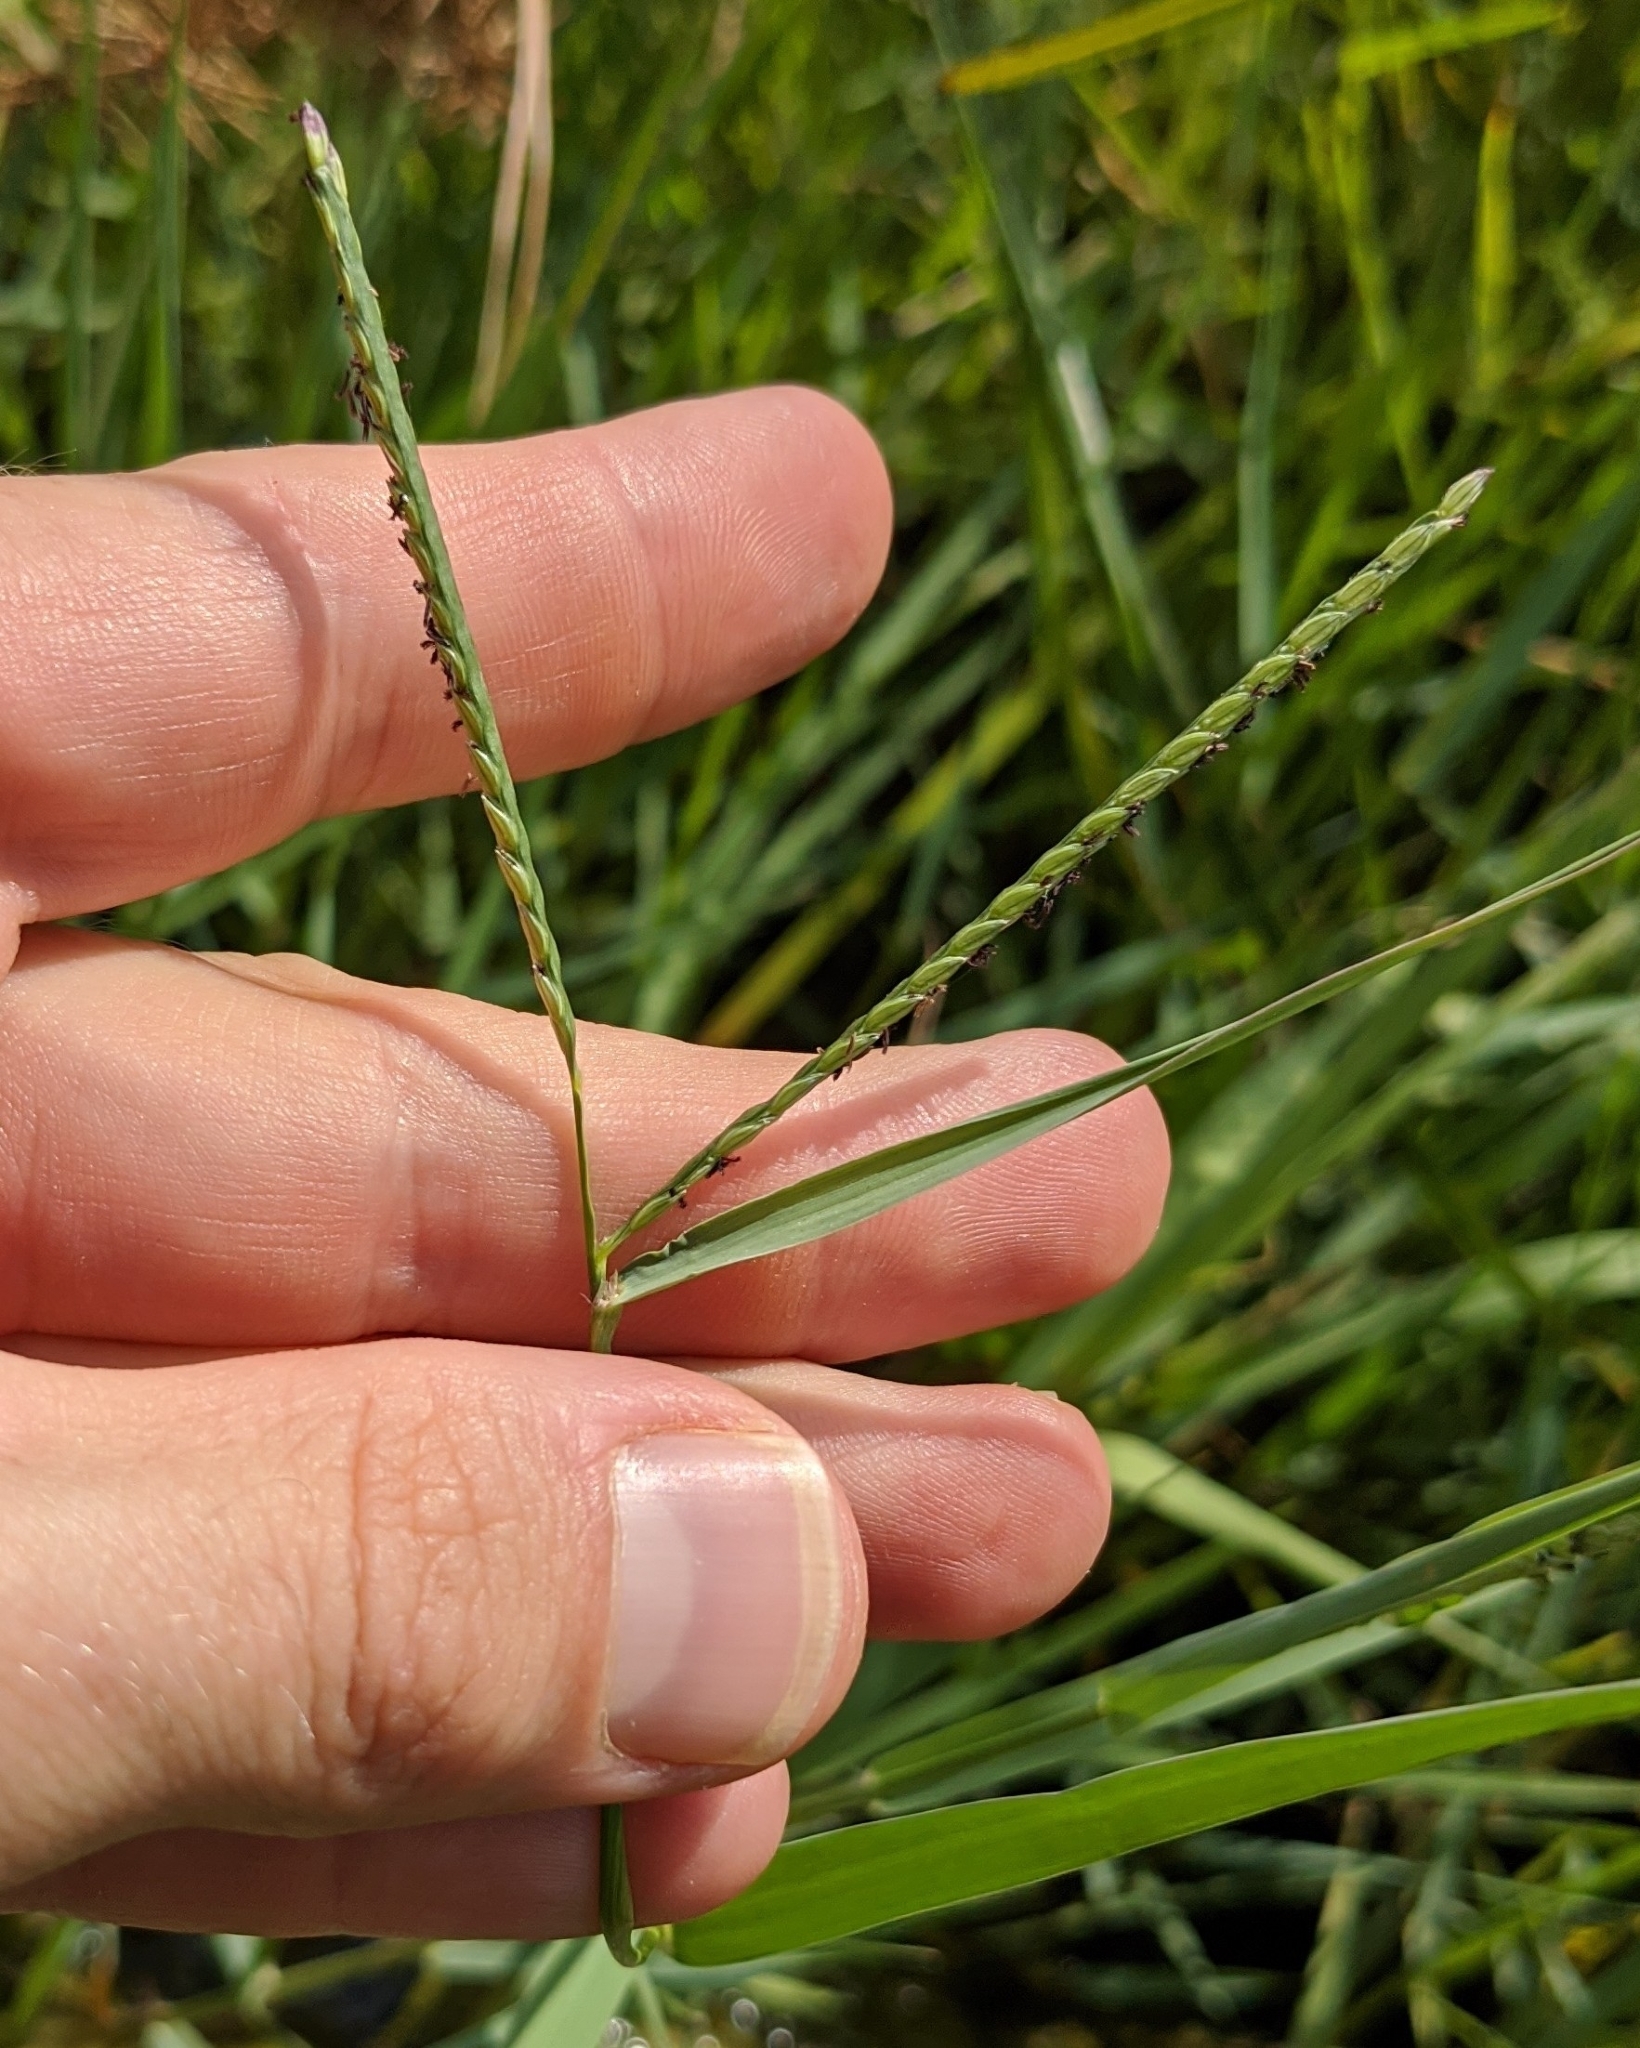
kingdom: Plantae
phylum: Tracheophyta
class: Liliopsida
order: Poales
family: Poaceae
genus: Paspalum
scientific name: Paspalum distichum
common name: Knotgrass
